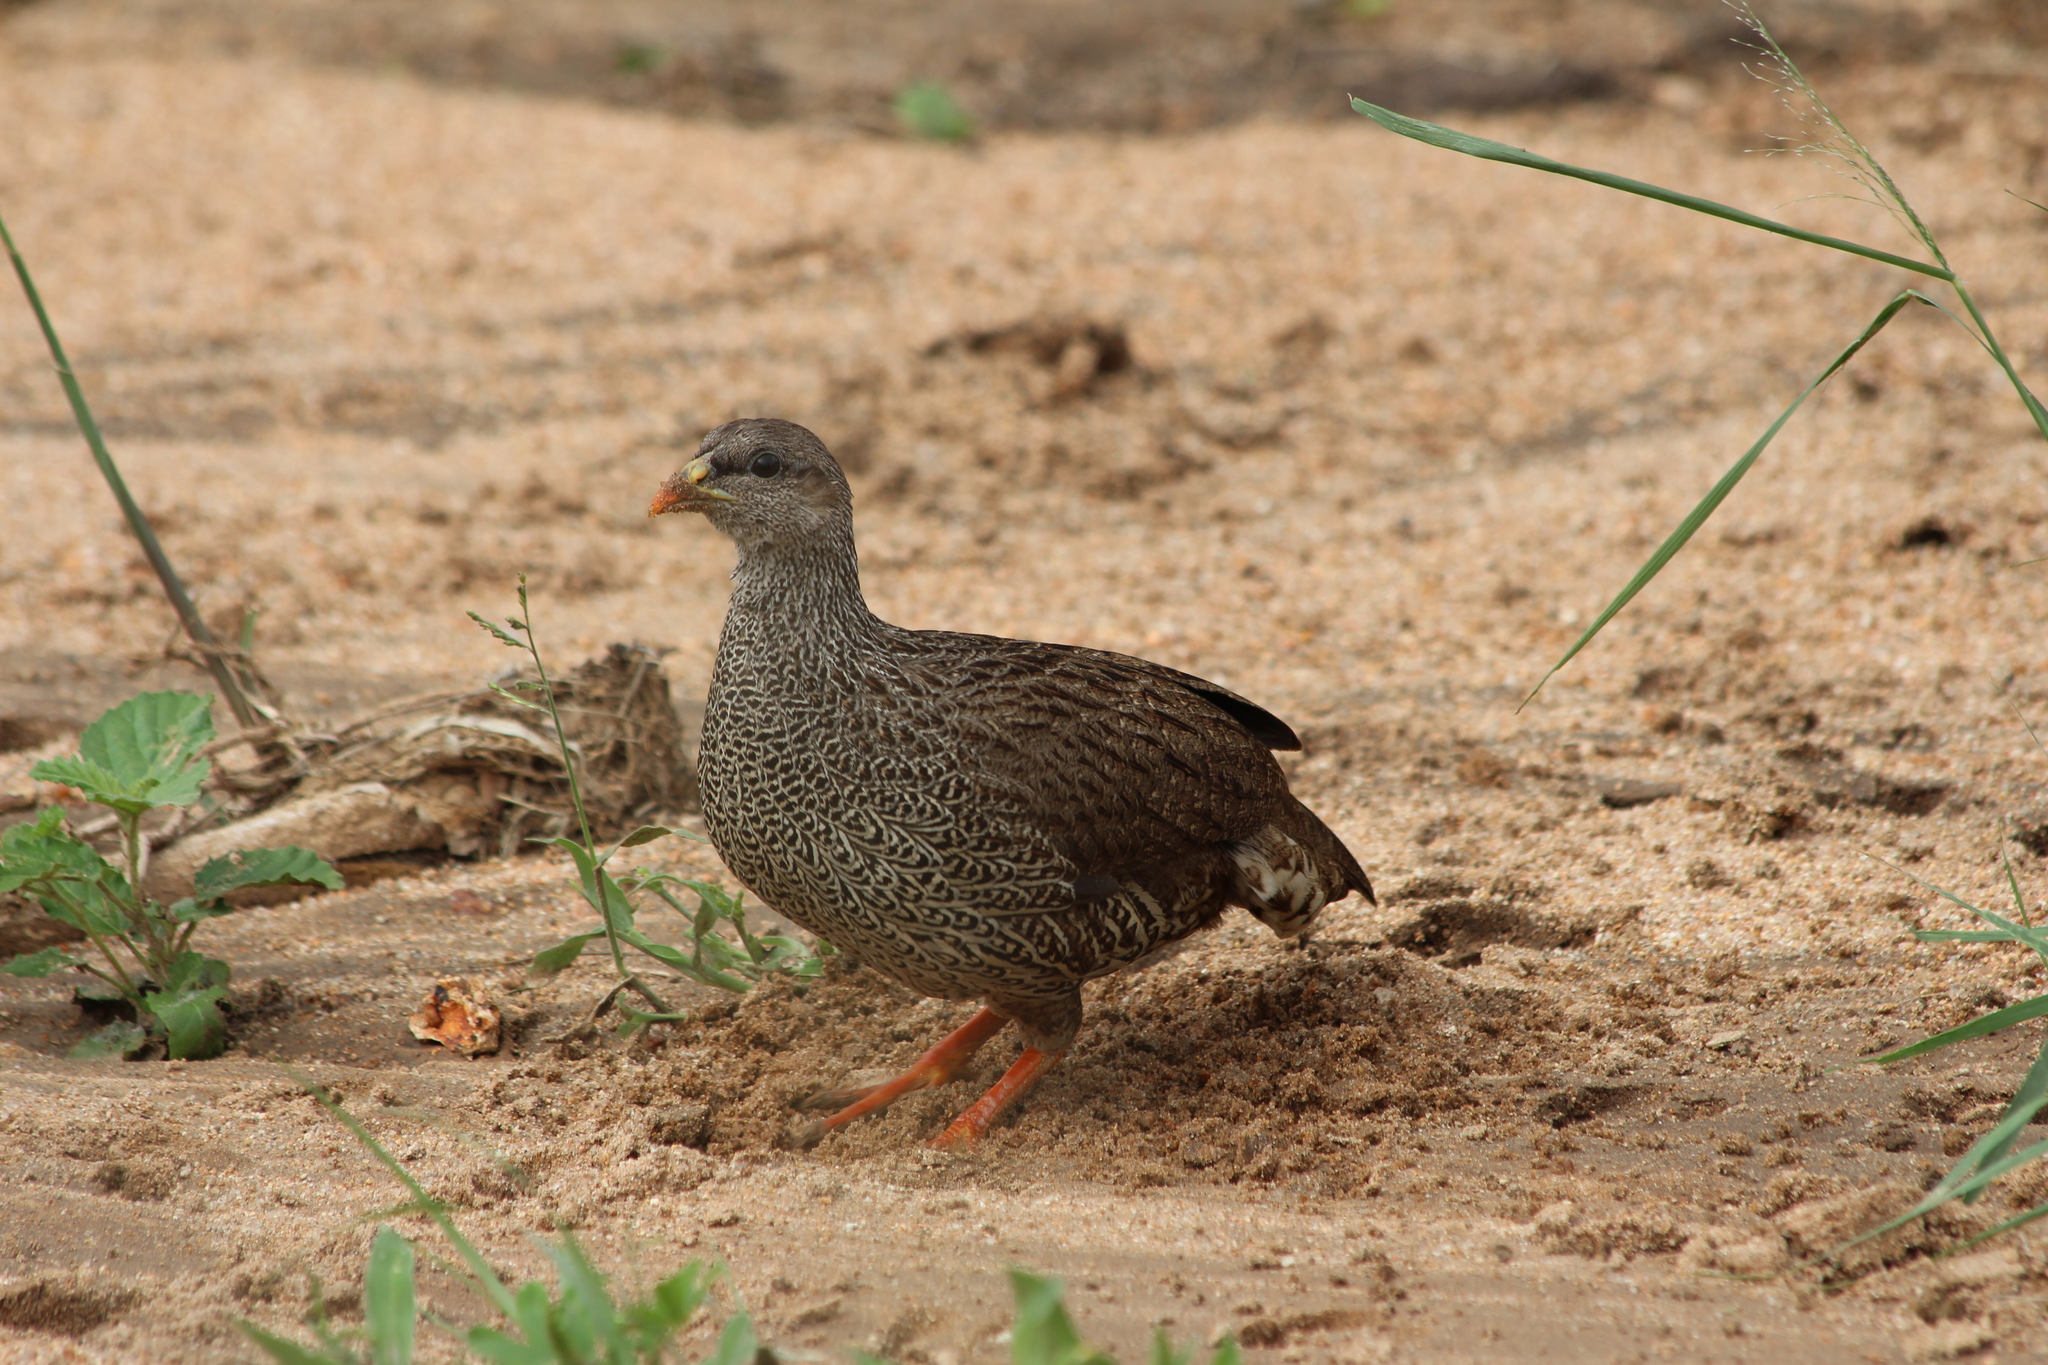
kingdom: Animalia
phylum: Chordata
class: Aves
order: Galliformes
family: Phasianidae
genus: Pternistis
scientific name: Pternistis natalensis
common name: Natal spurfowl
